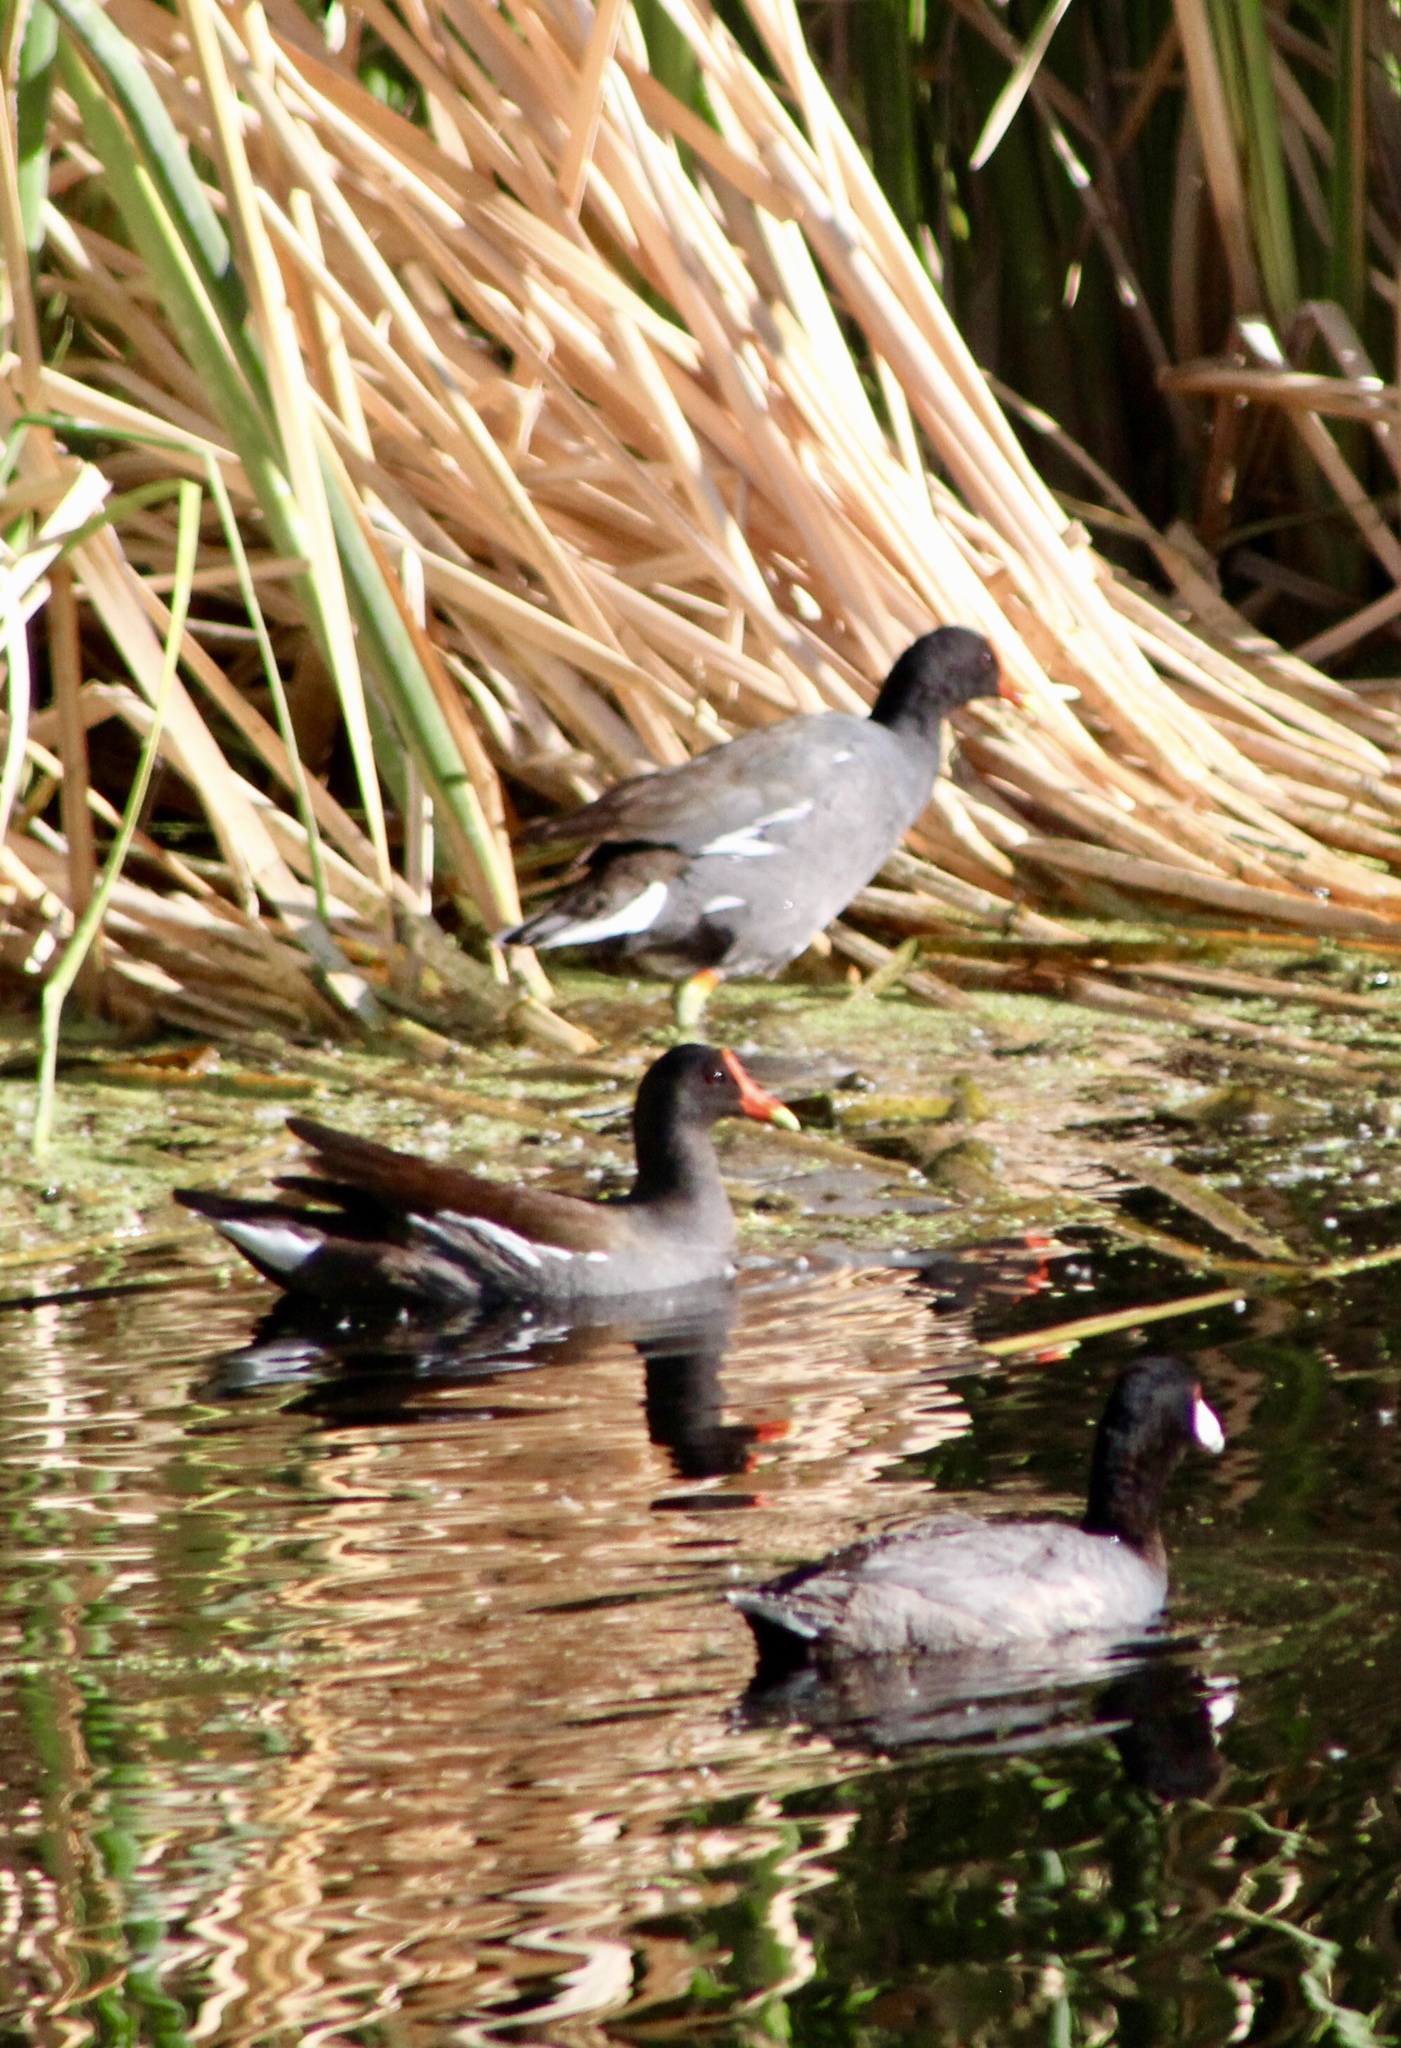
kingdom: Animalia
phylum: Chordata
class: Aves
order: Gruiformes
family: Rallidae
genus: Gallinula
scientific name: Gallinula chloropus
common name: Common moorhen
